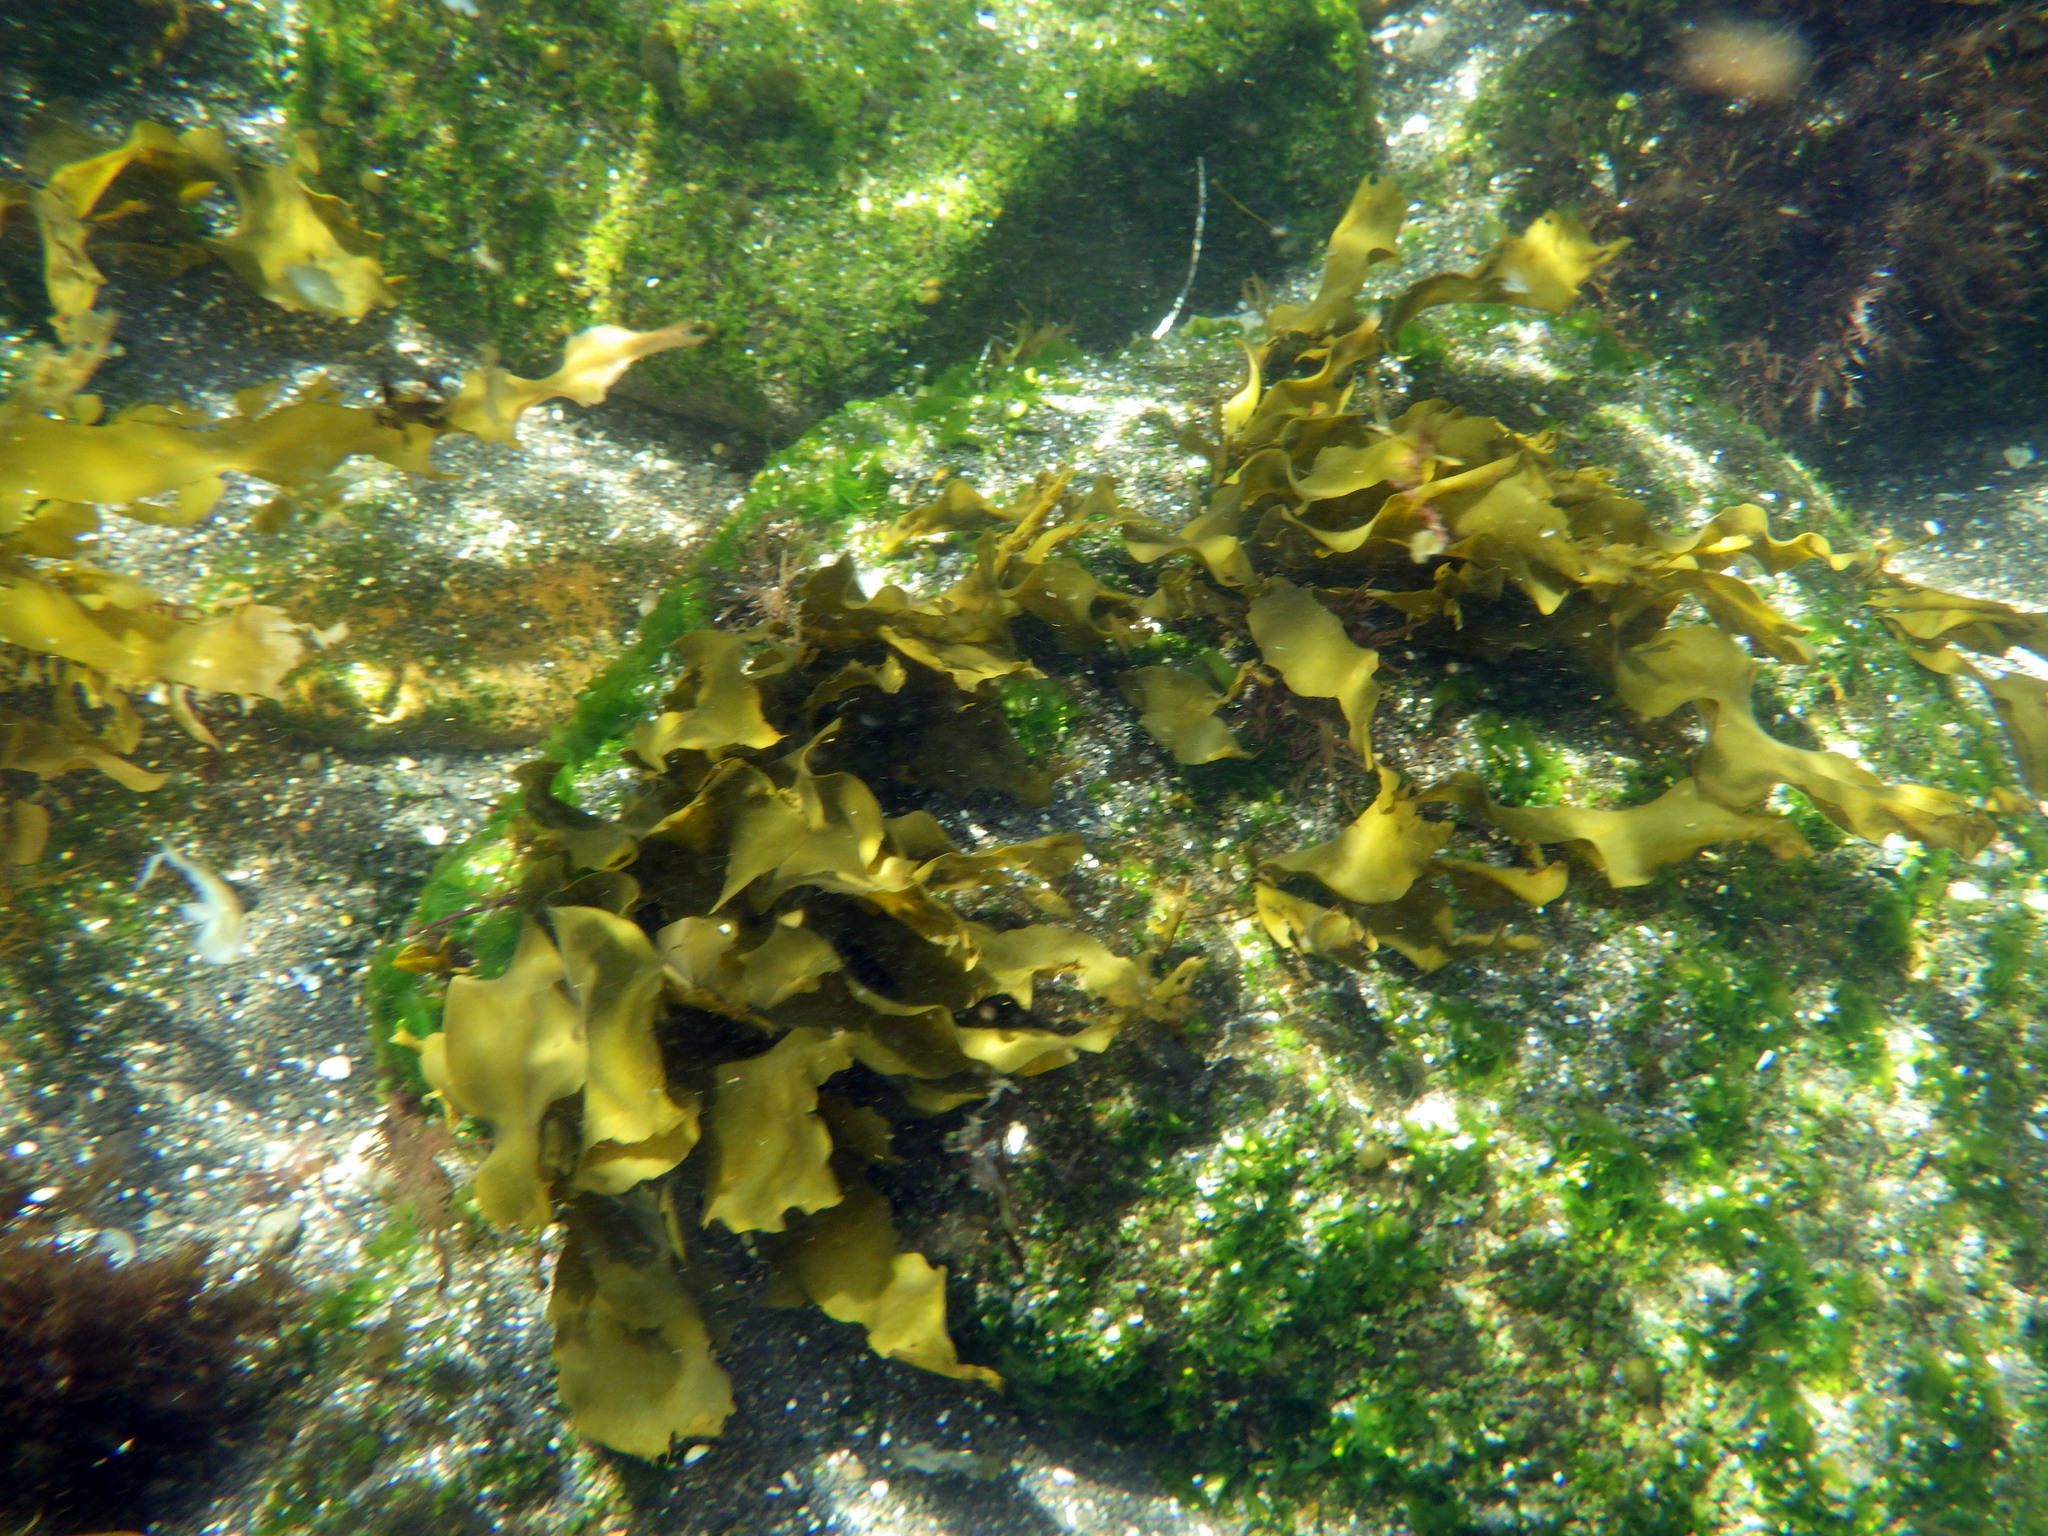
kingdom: Chromista
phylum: Ochrophyta
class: Phaeophyceae
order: Laminariales
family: Lessoniaceae
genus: Egregia
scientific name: Egregia menziesii
